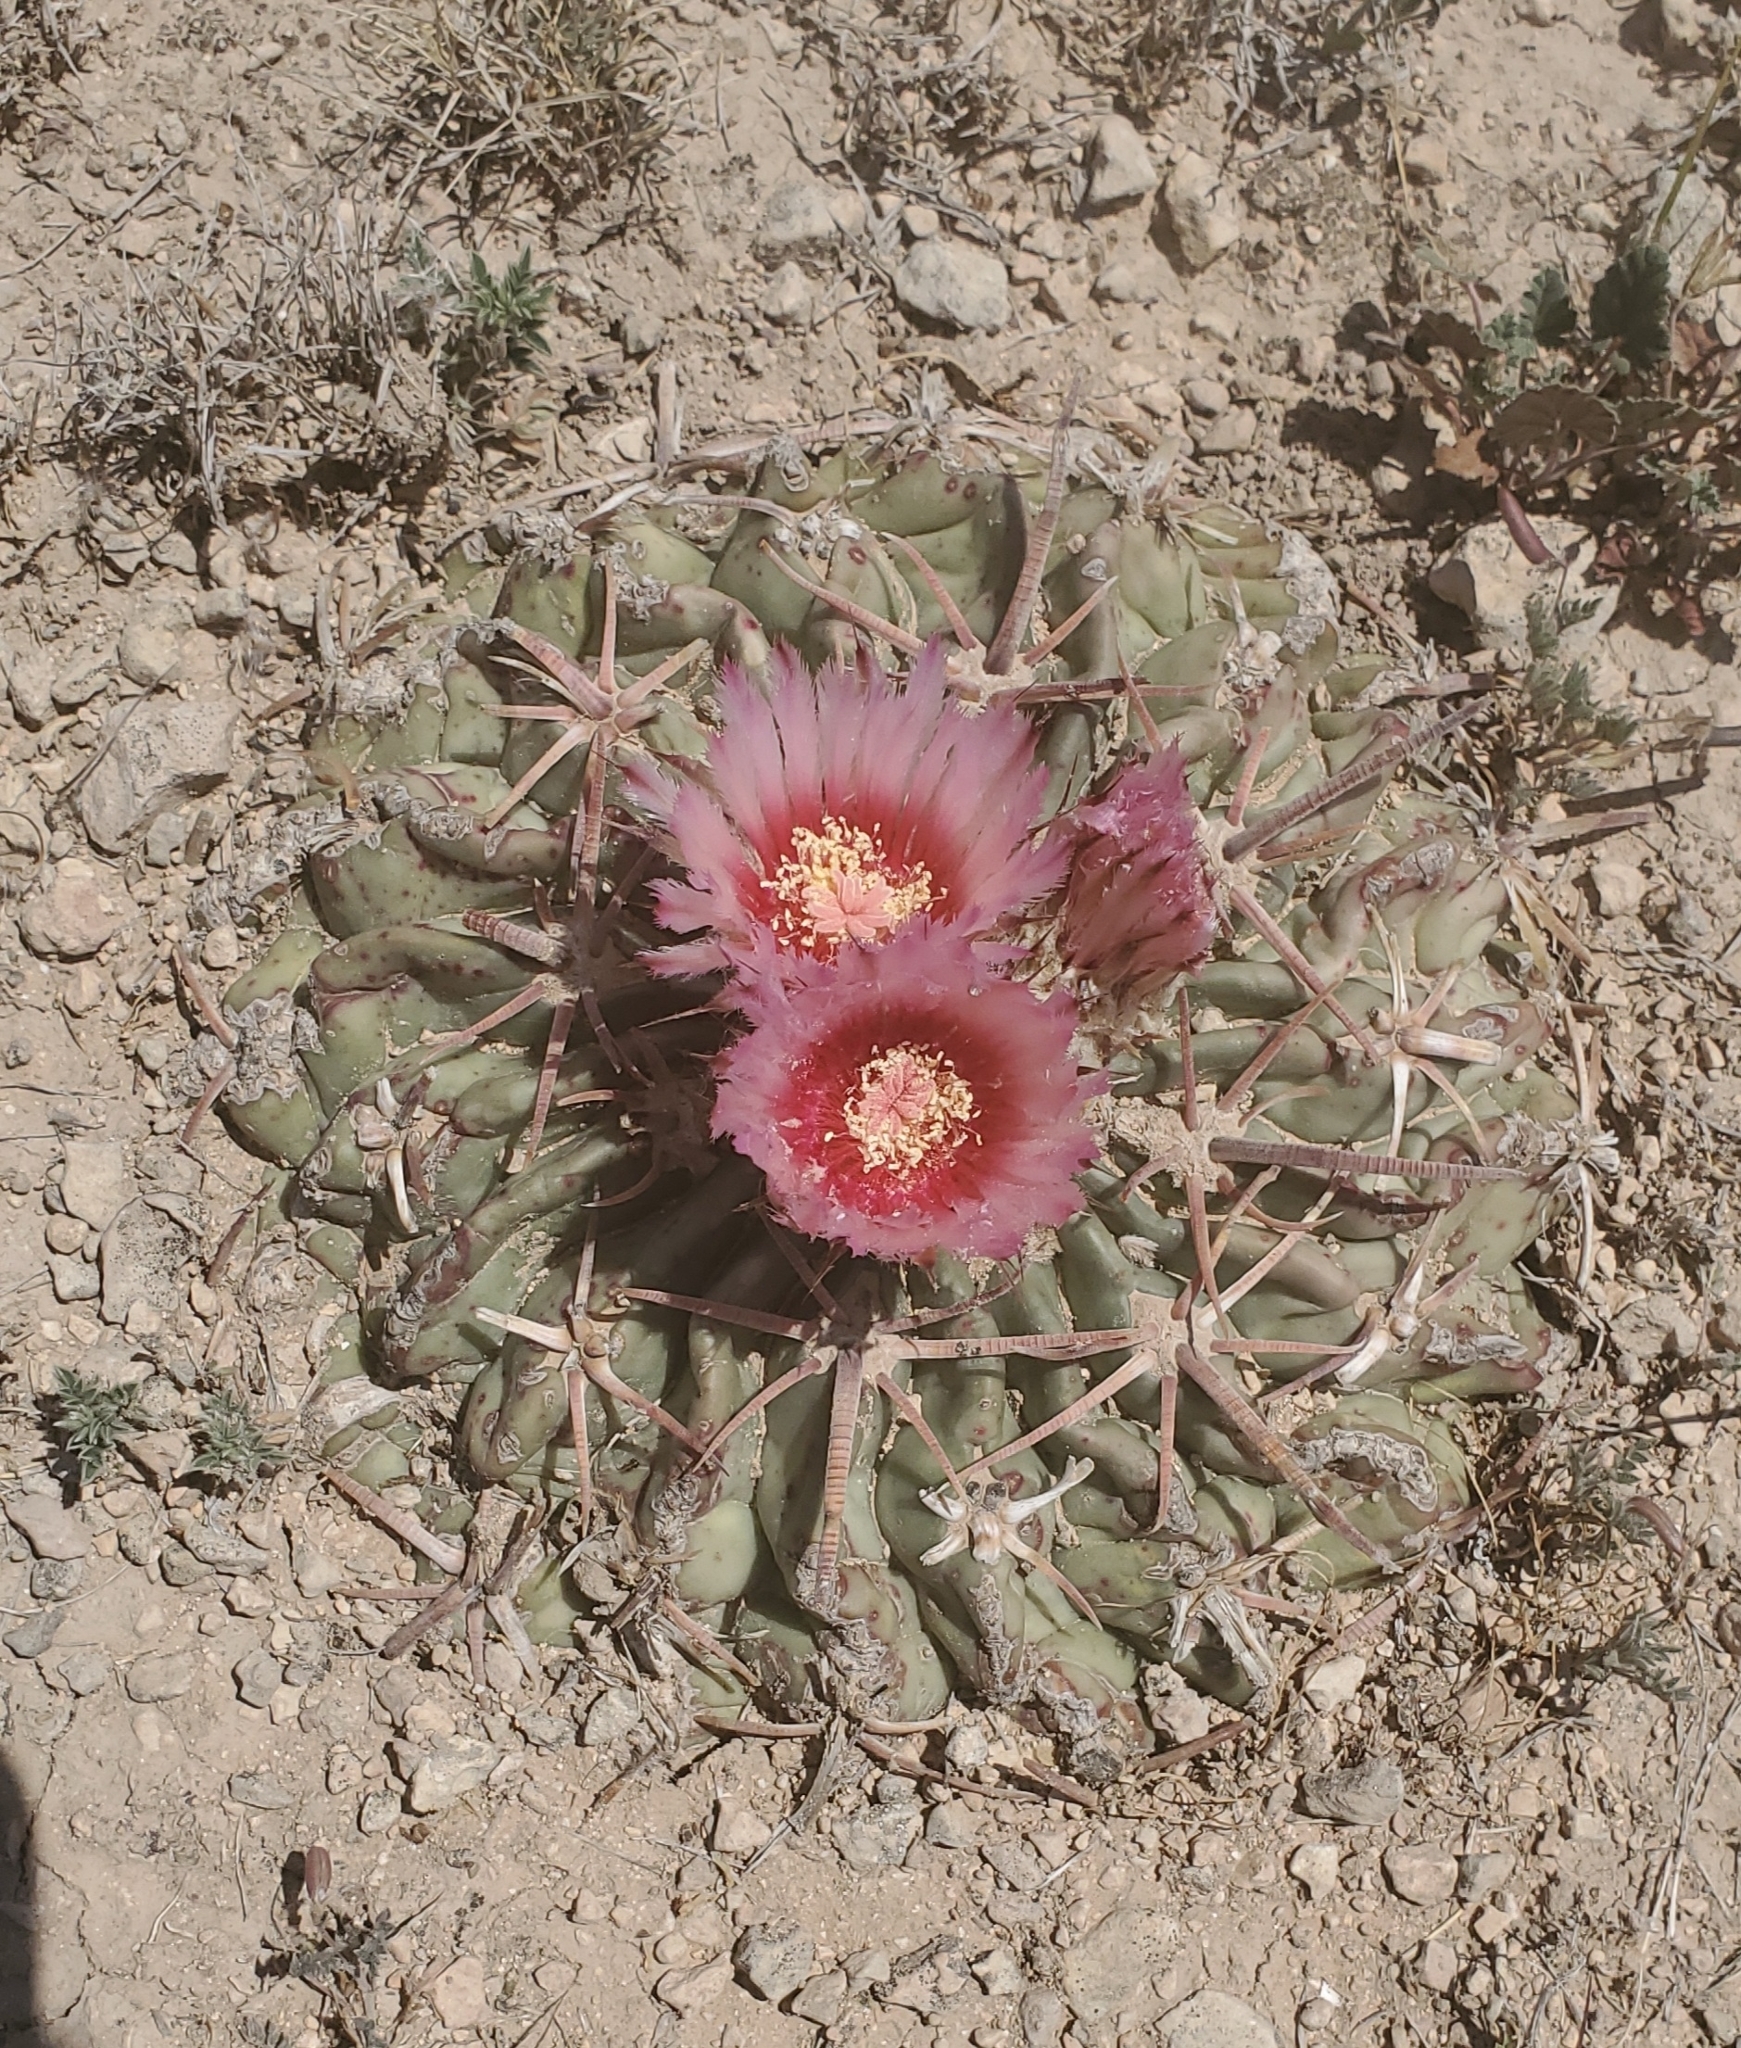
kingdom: Plantae
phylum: Tracheophyta
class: Magnoliopsida
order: Caryophyllales
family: Cactaceae
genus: Echinocactus
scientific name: Echinocactus texensis
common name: Devil's pincushion
